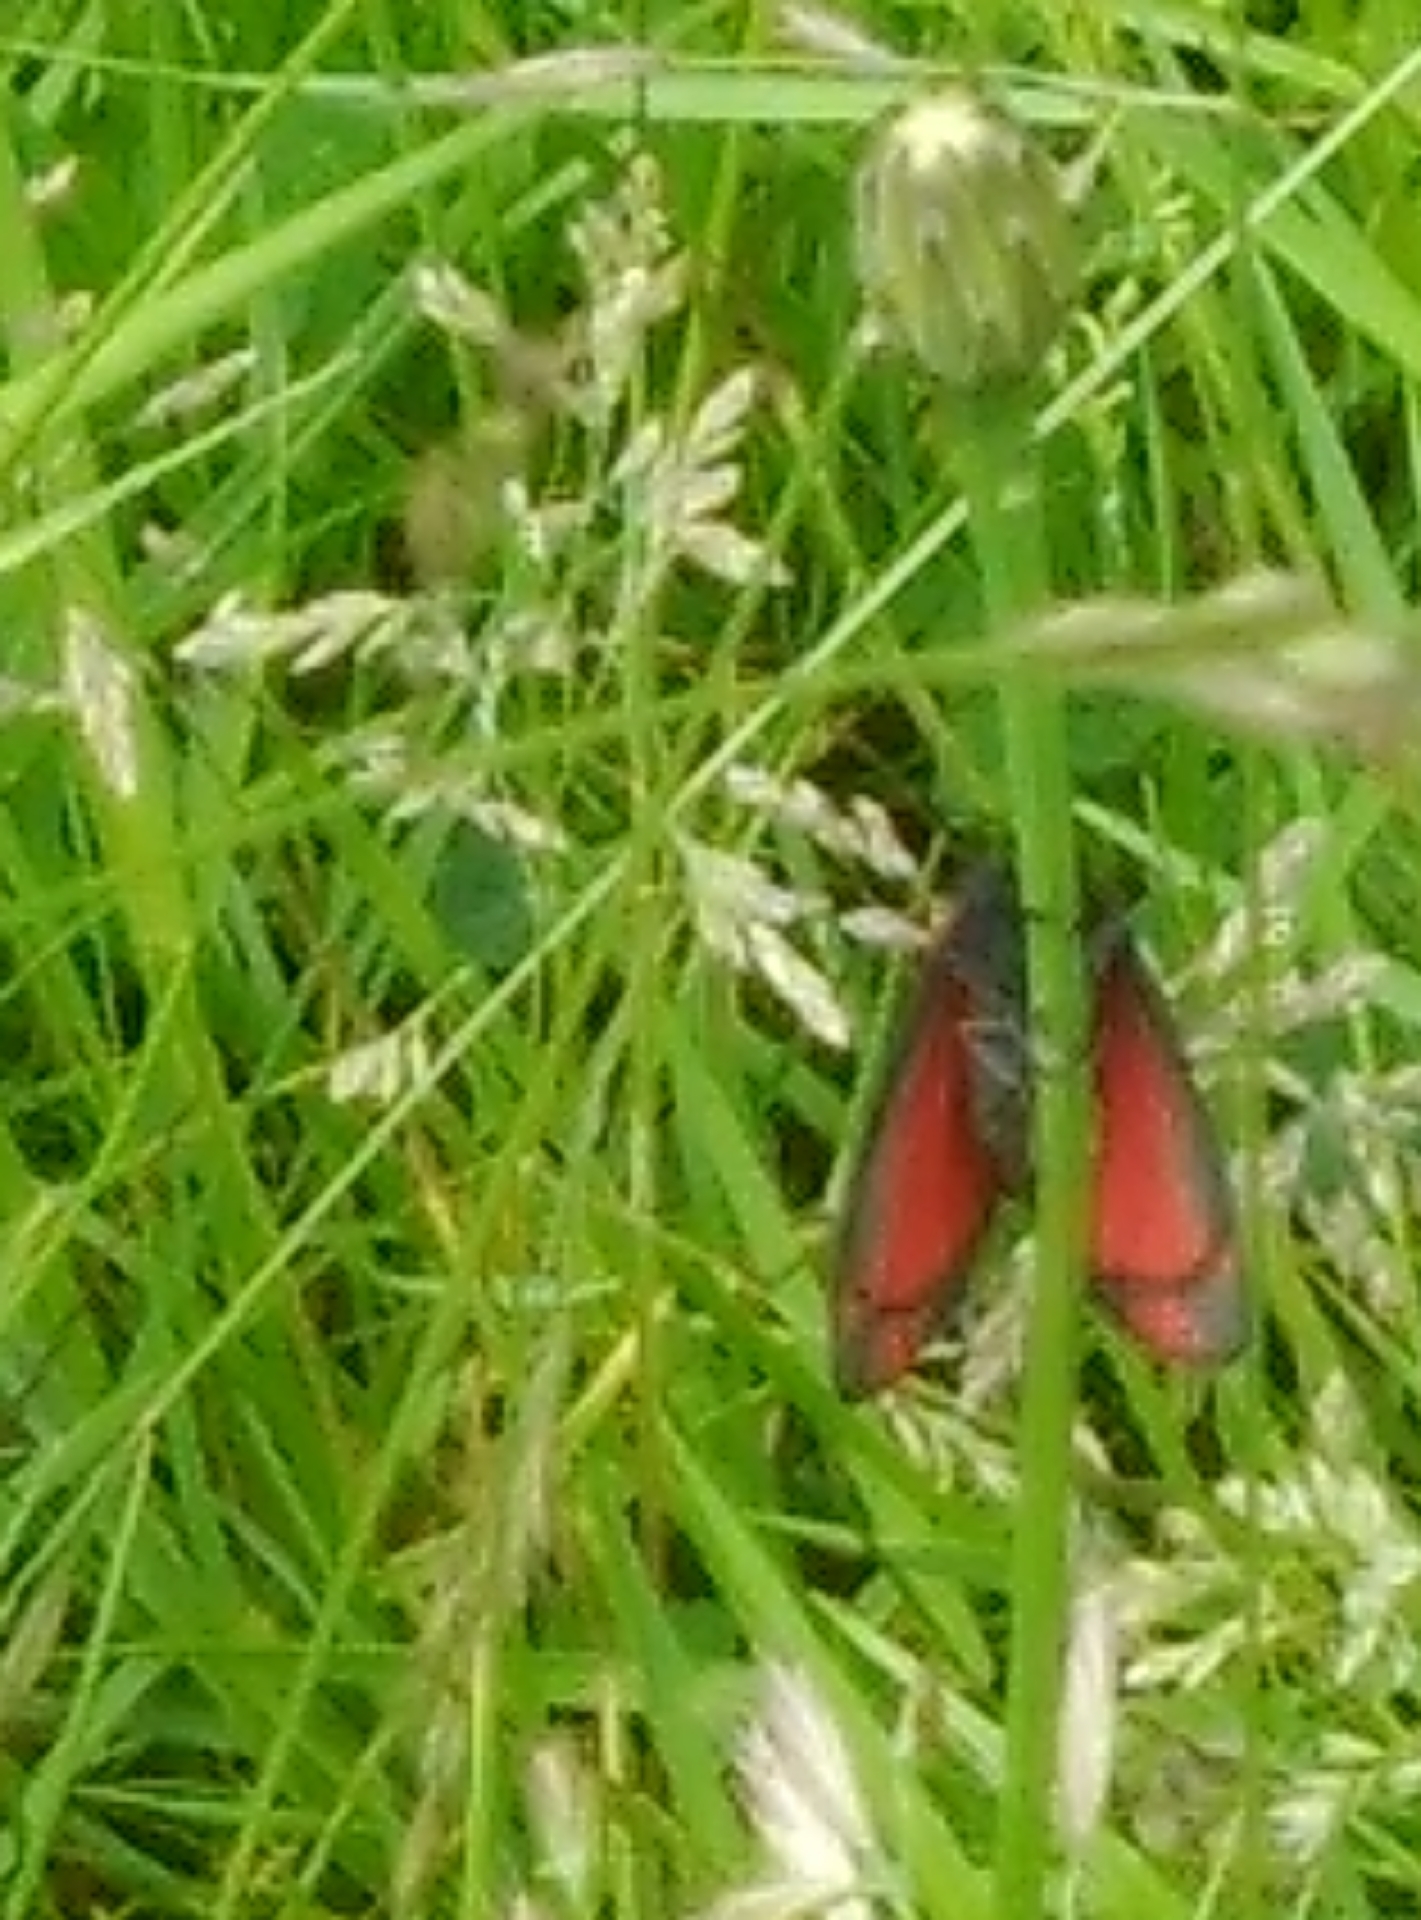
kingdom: Animalia
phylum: Arthropoda
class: Insecta
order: Lepidoptera
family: Erebidae
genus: Tyria
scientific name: Tyria jacobaeae
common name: Cinnabar
